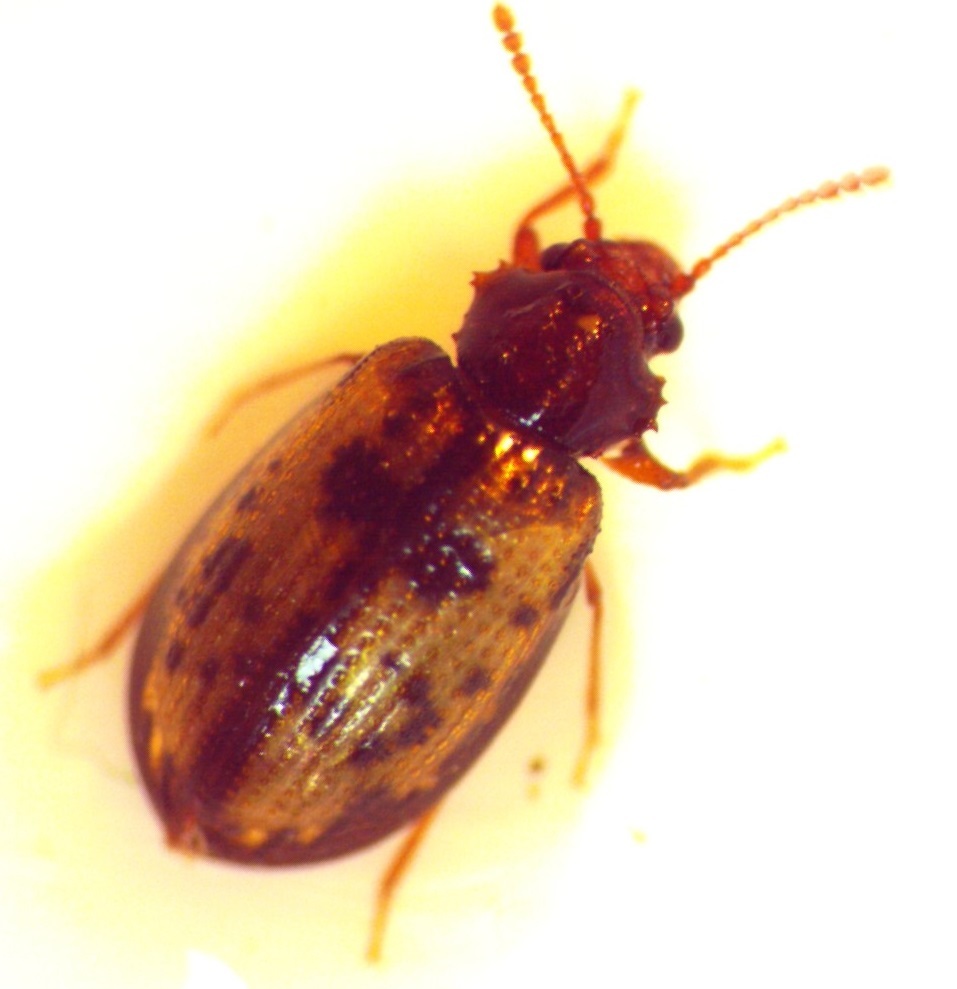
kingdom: Animalia
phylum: Arthropoda
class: Insecta
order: Coleoptera
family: Derodontidae
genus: Derodontus
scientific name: Derodontus esotericus
